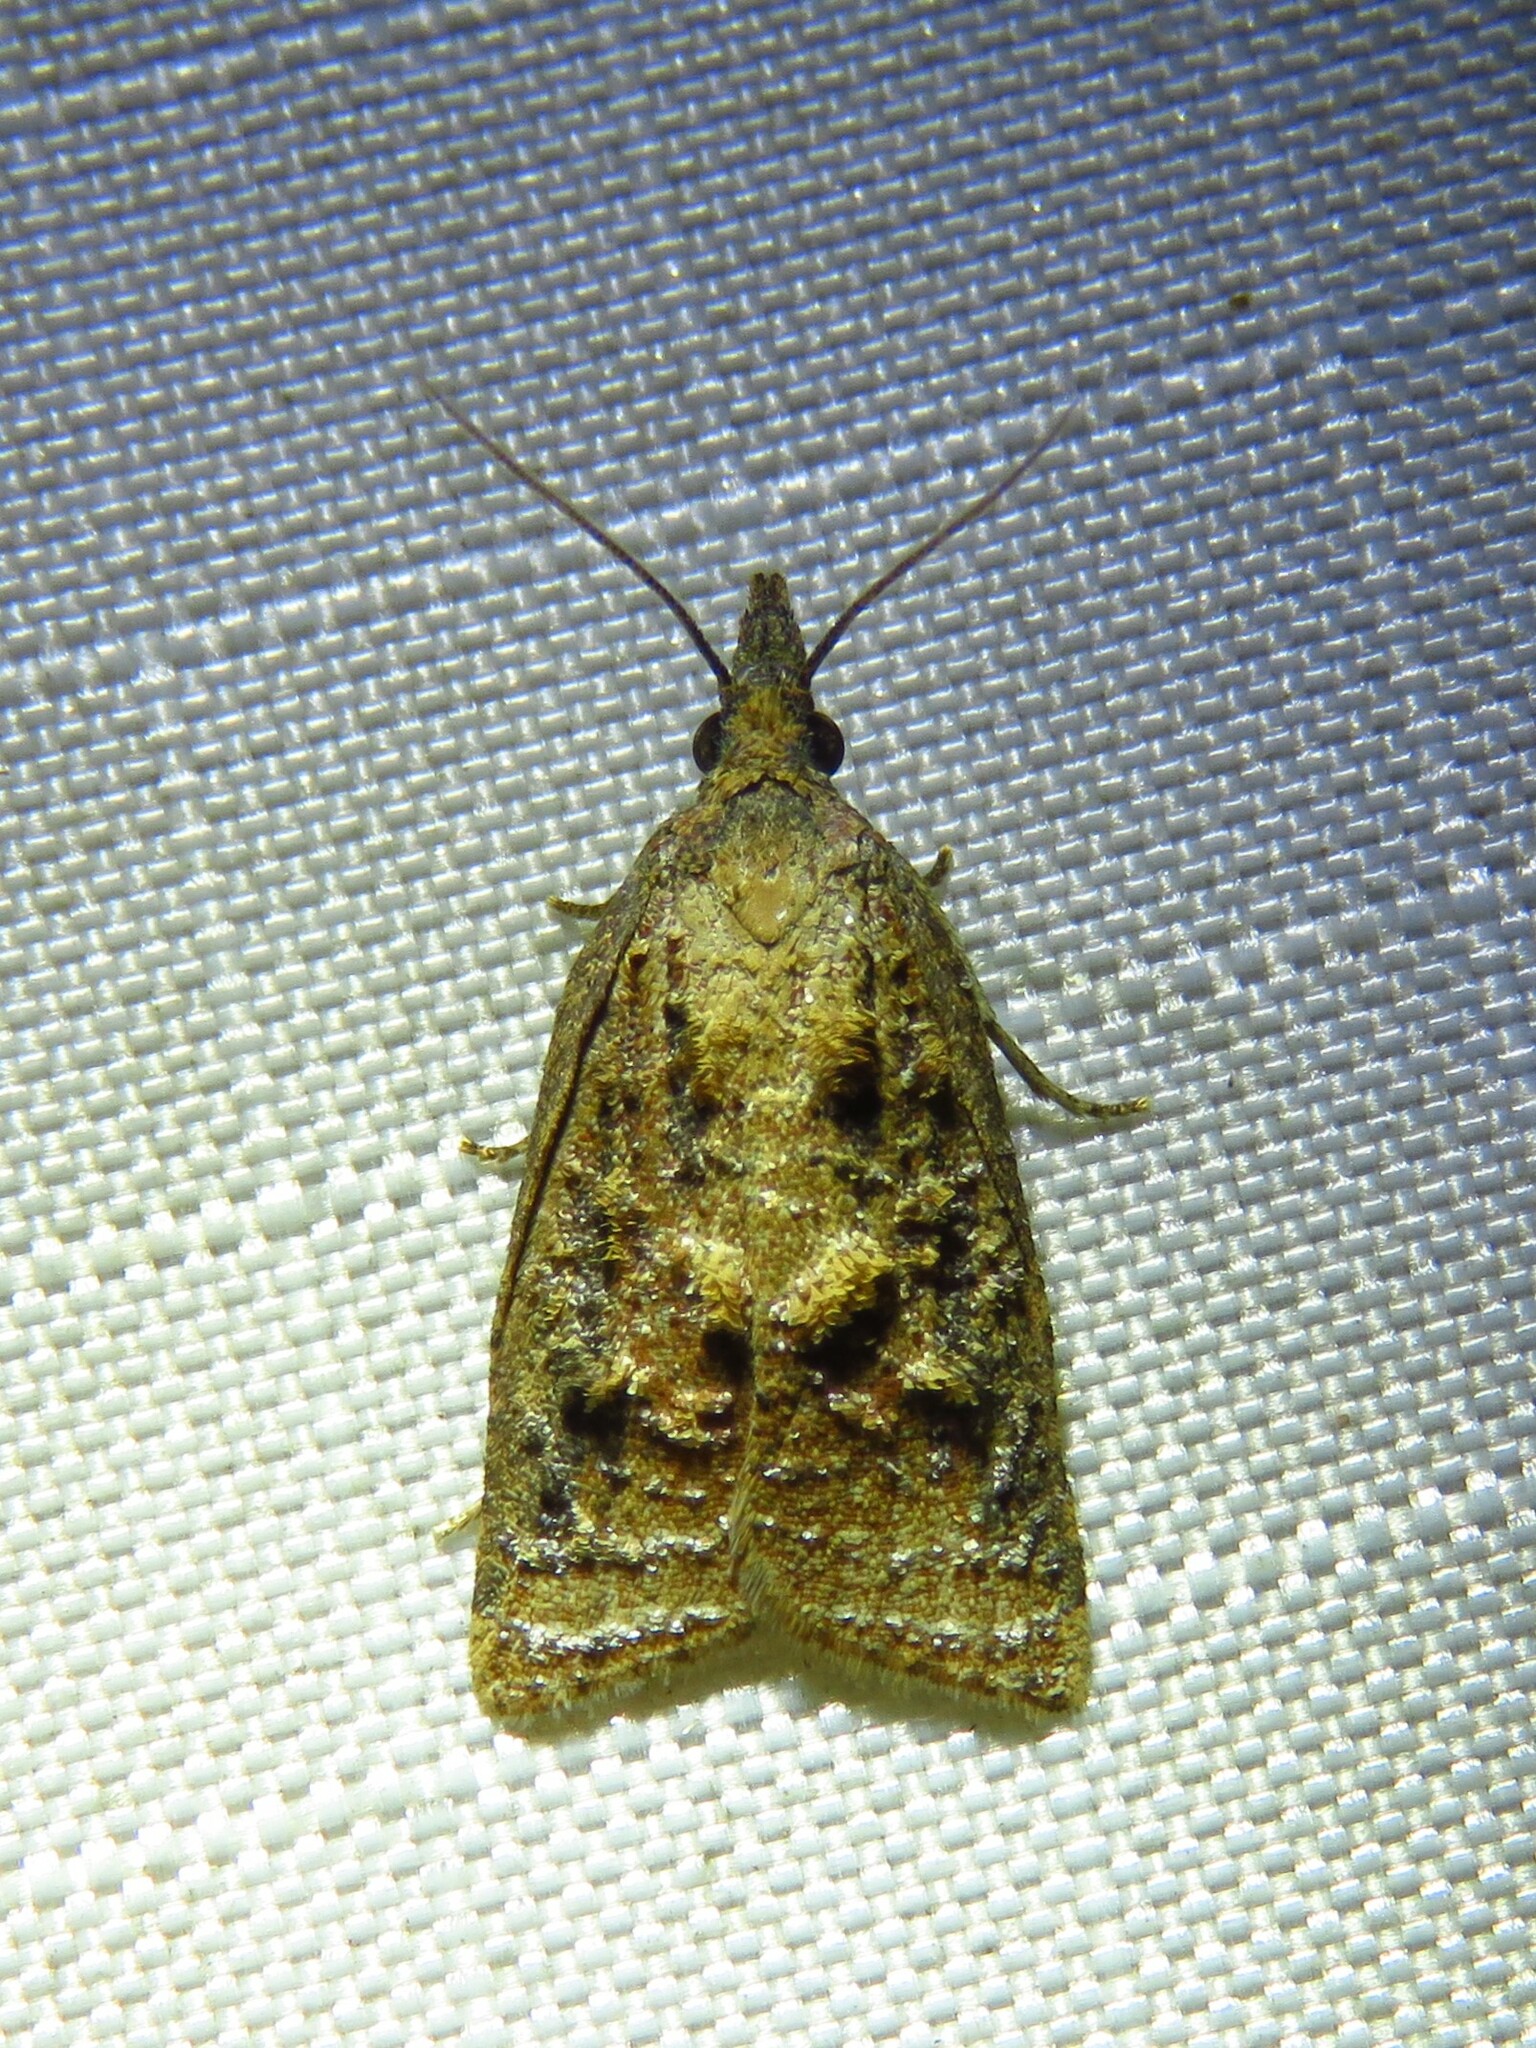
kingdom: Animalia
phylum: Arthropoda
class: Insecta
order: Lepidoptera
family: Tortricidae
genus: Platynota
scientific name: Platynota rostrana
